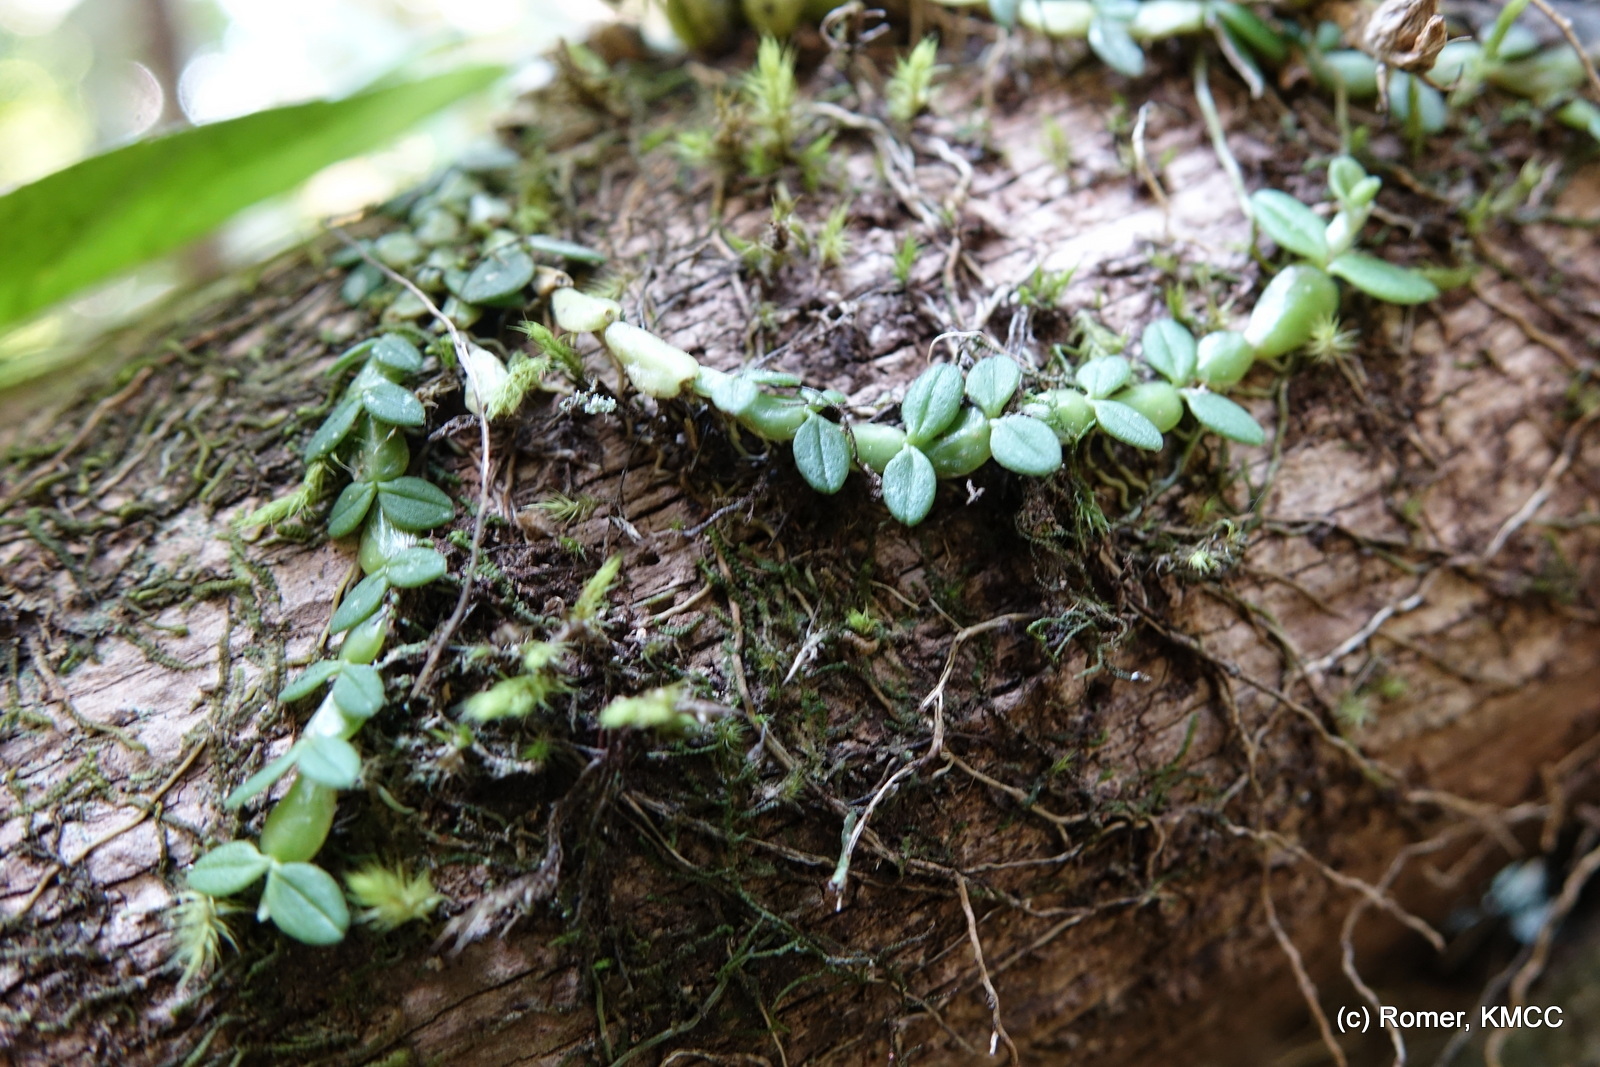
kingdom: Plantae
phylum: Tracheophyta
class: Liliopsida
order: Asparagales
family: Orchidaceae
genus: Bulbophyllum
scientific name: Bulbophyllum insolitum
